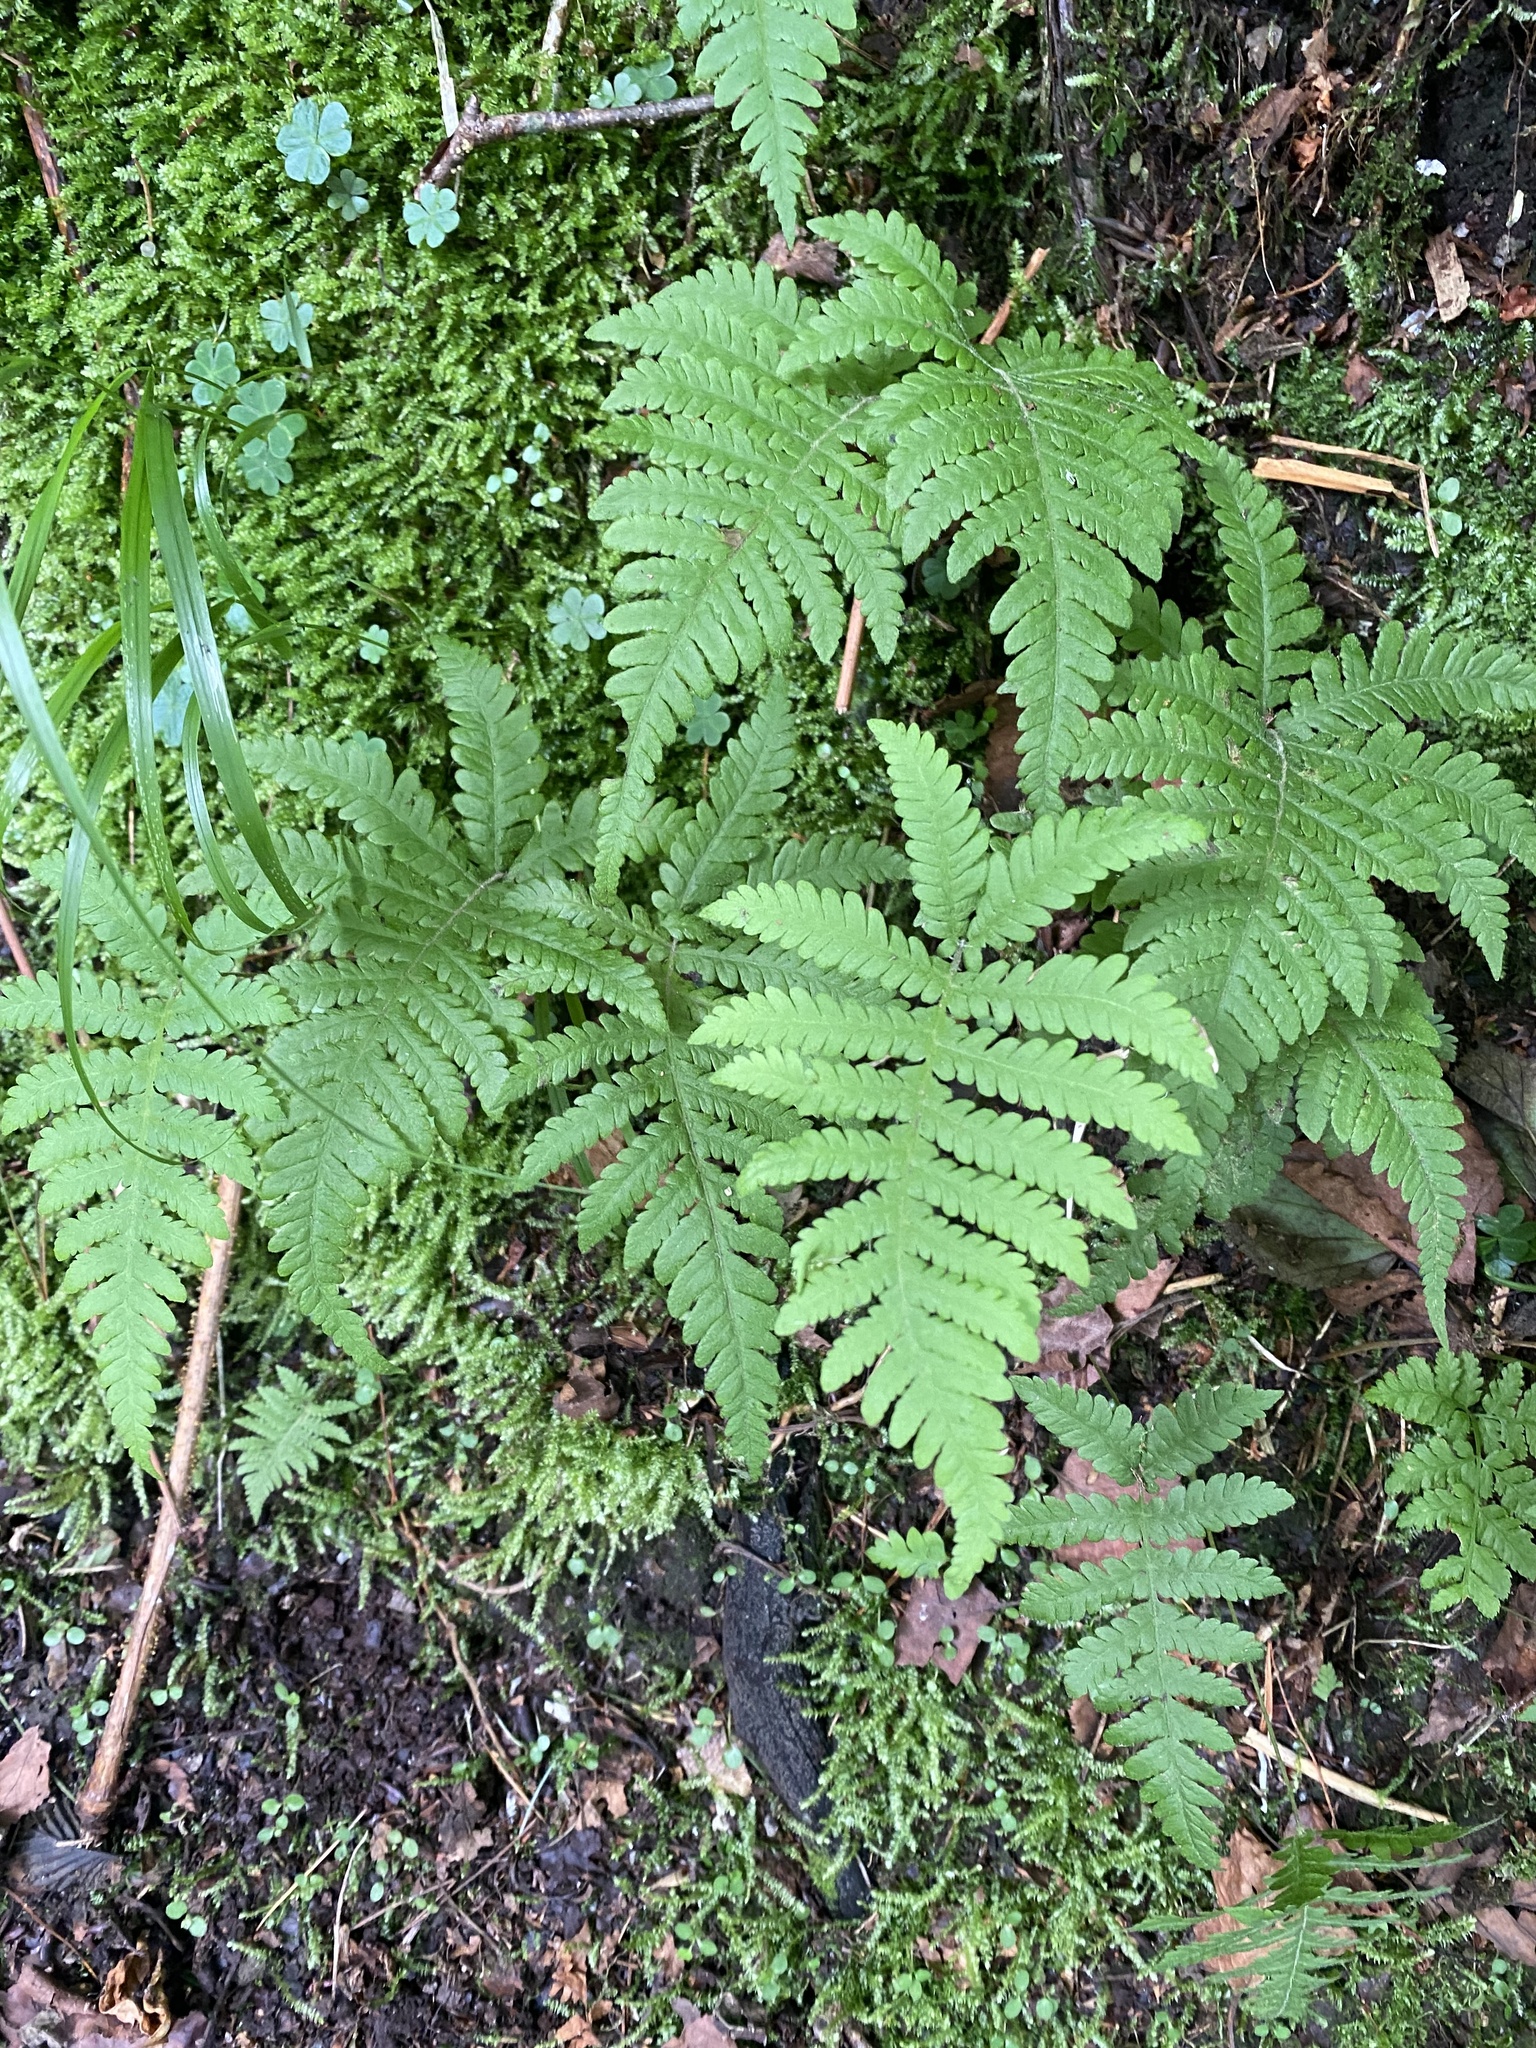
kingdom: Plantae
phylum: Tracheophyta
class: Polypodiopsida
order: Polypodiales
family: Thelypteridaceae
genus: Phegopteris
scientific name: Phegopteris connectilis
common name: Beech fern
